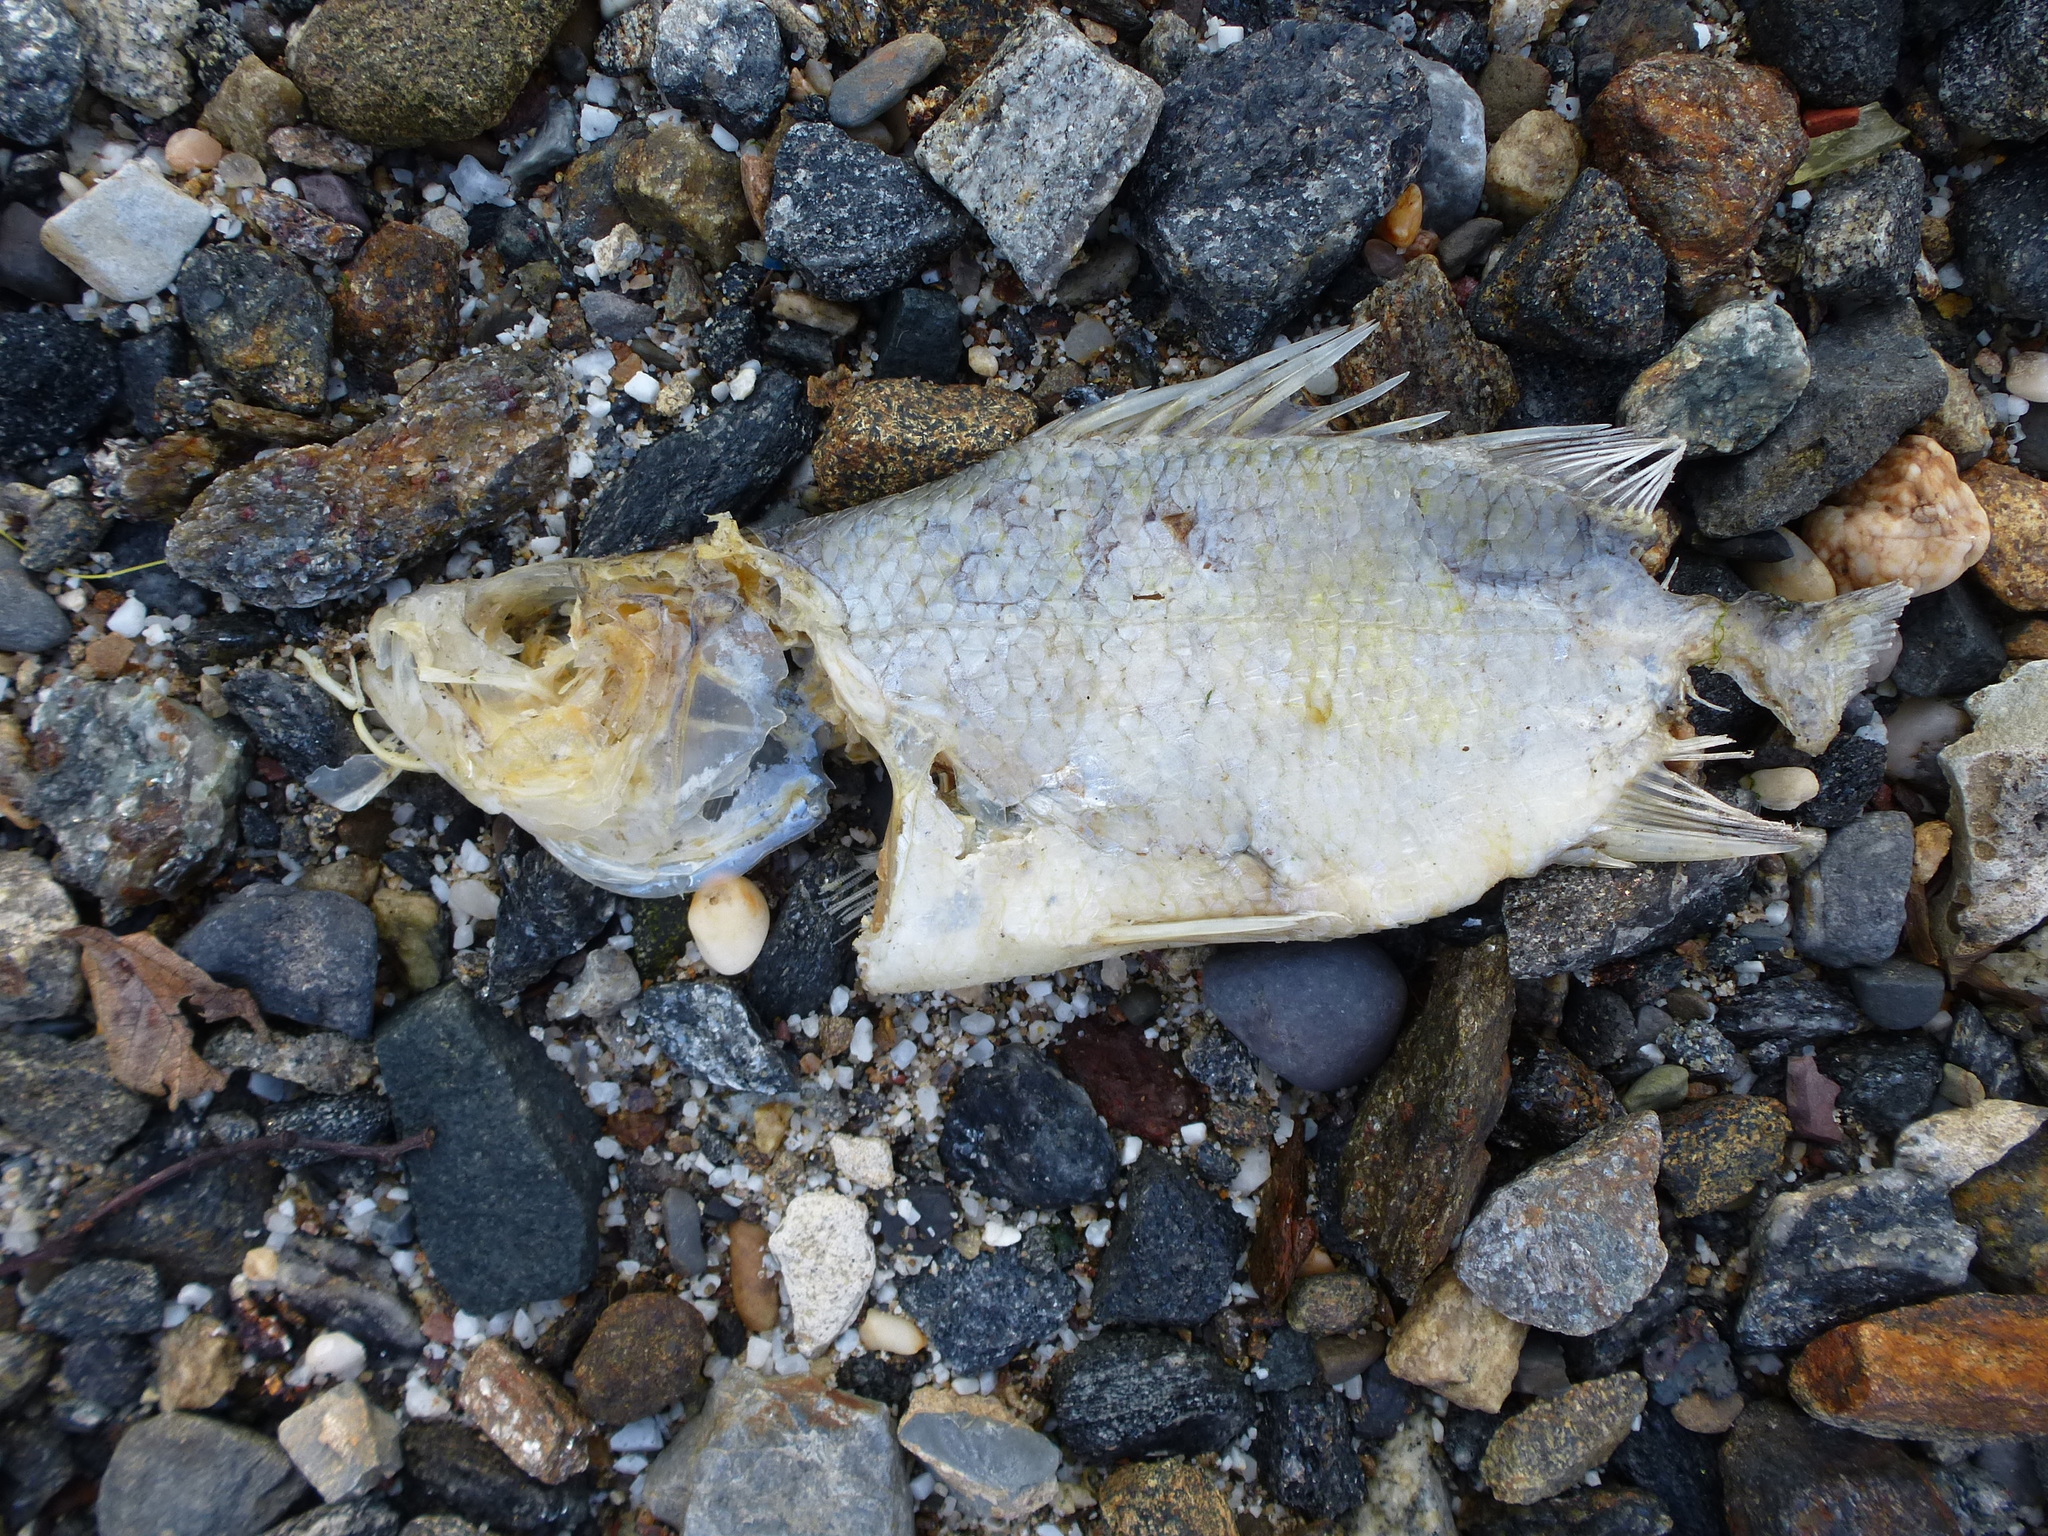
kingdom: Animalia
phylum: Chordata
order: Perciformes
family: Moronidae
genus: Morone
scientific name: Morone americana
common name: White perch
